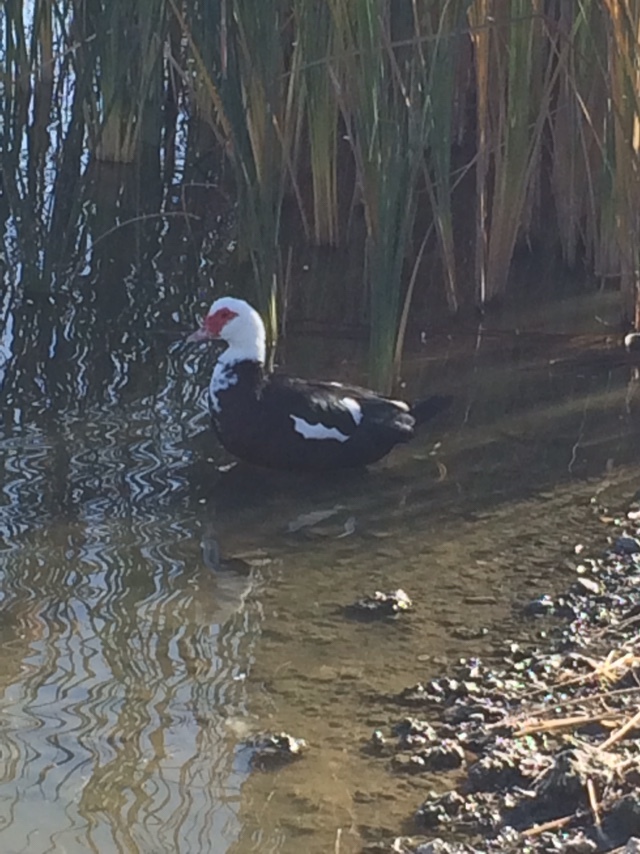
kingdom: Animalia
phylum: Chordata
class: Aves
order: Anseriformes
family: Anatidae
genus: Cairina
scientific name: Cairina moschata
